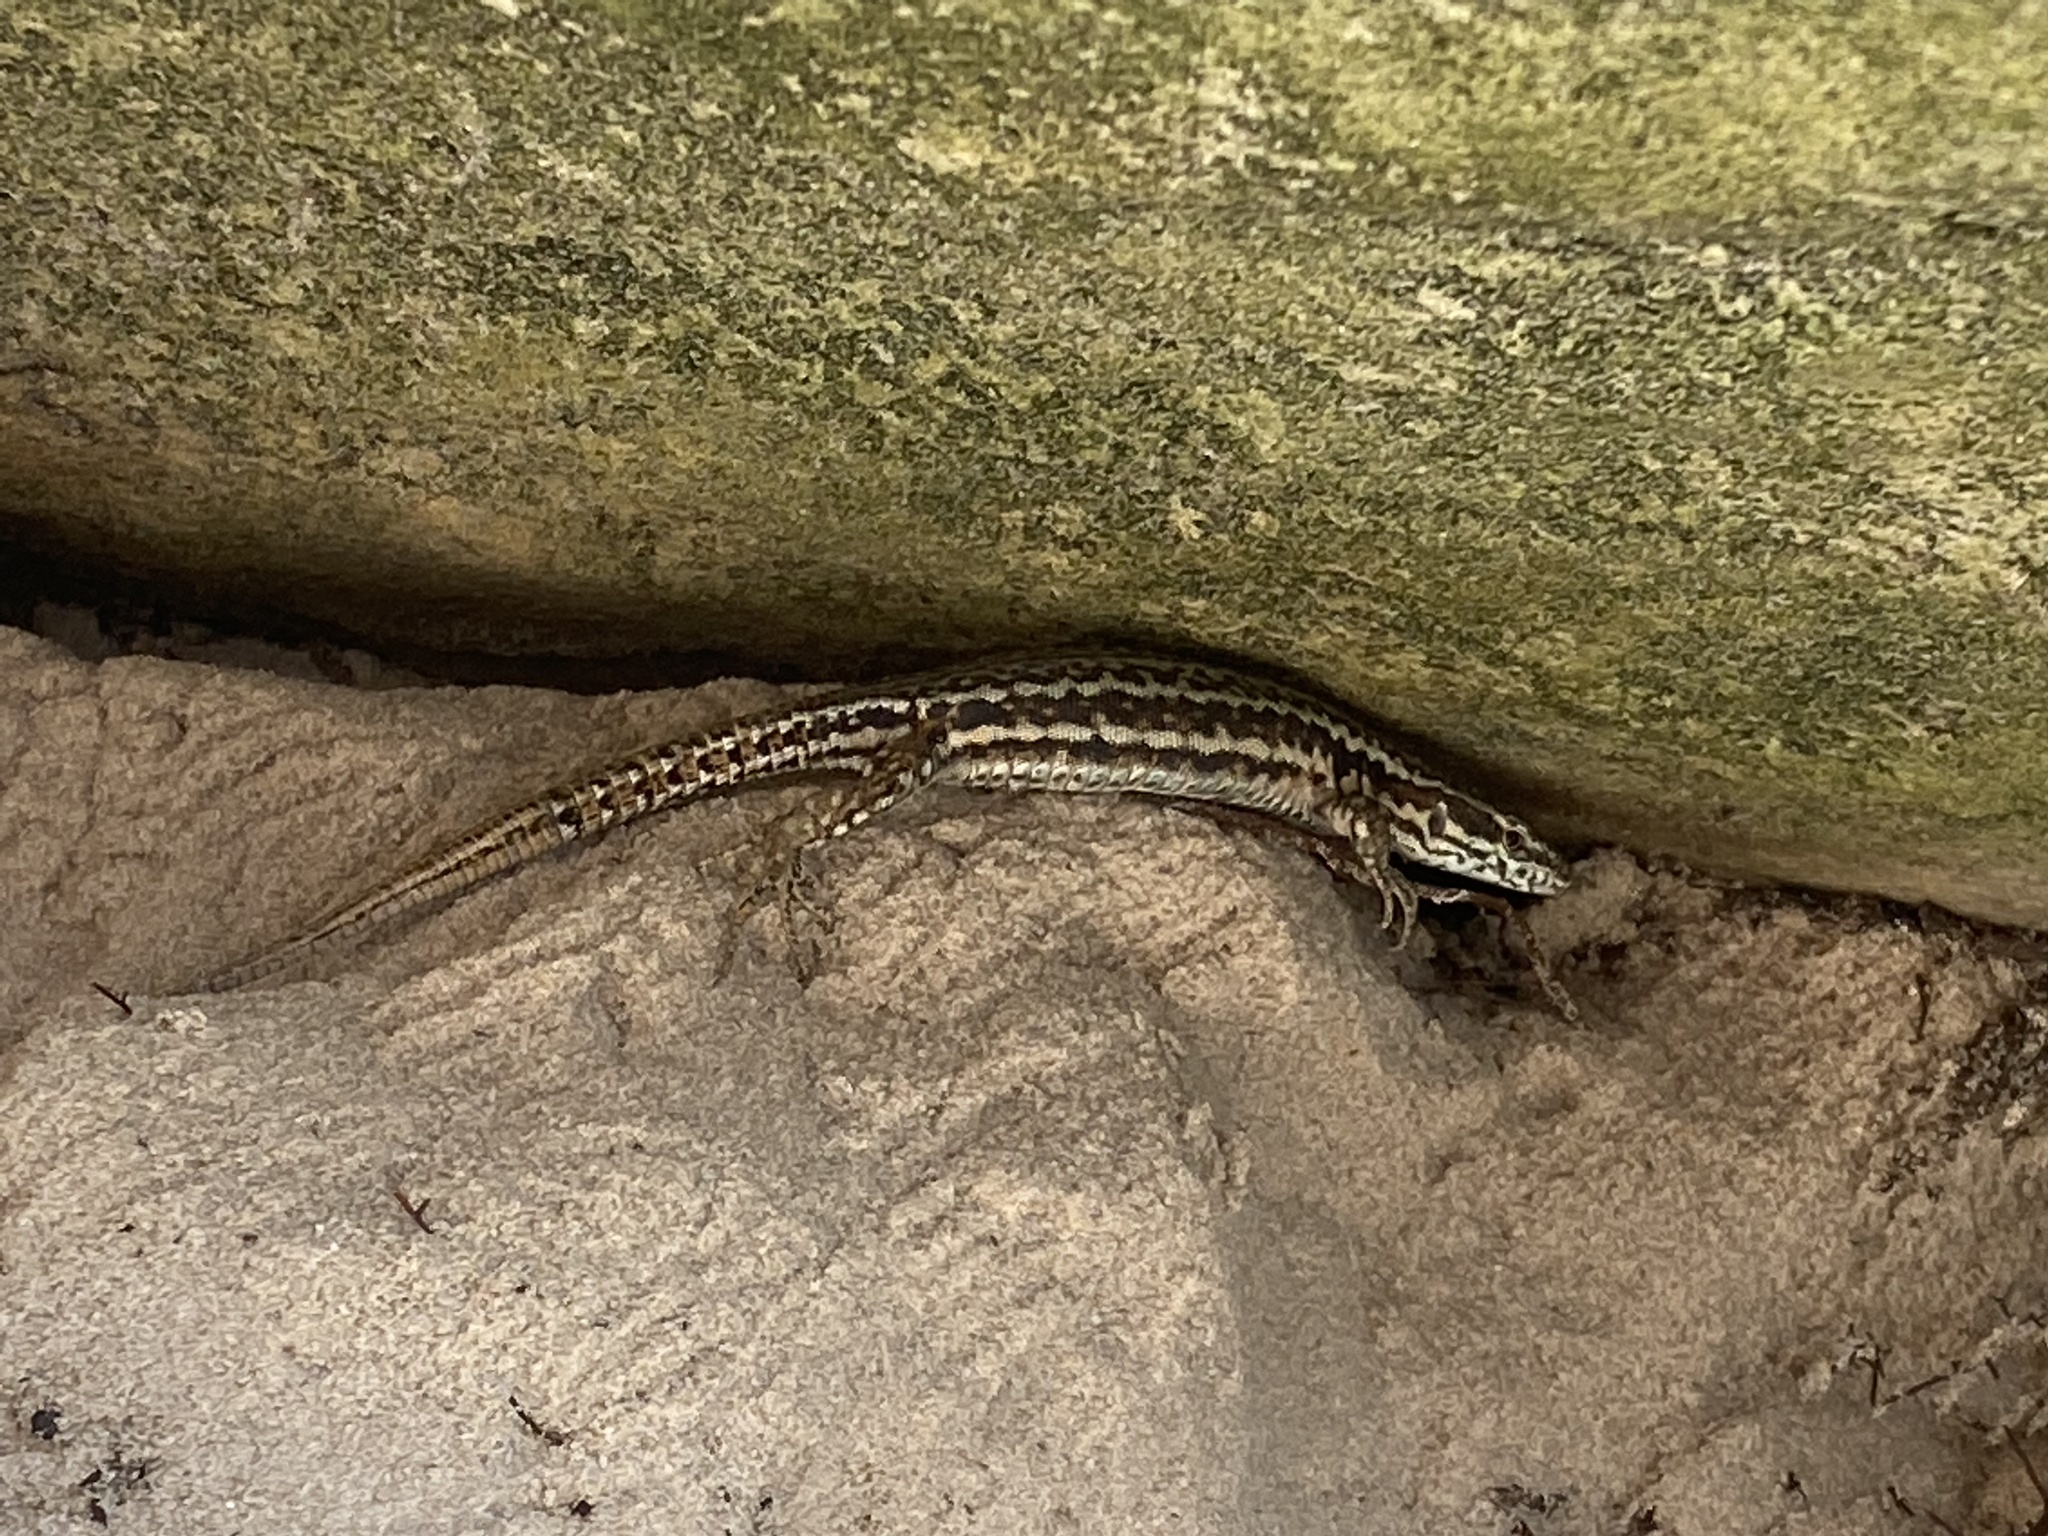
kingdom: Animalia
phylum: Chordata
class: Squamata
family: Lacertidae
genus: Podarcis
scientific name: Podarcis muralis
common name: Common wall lizard
